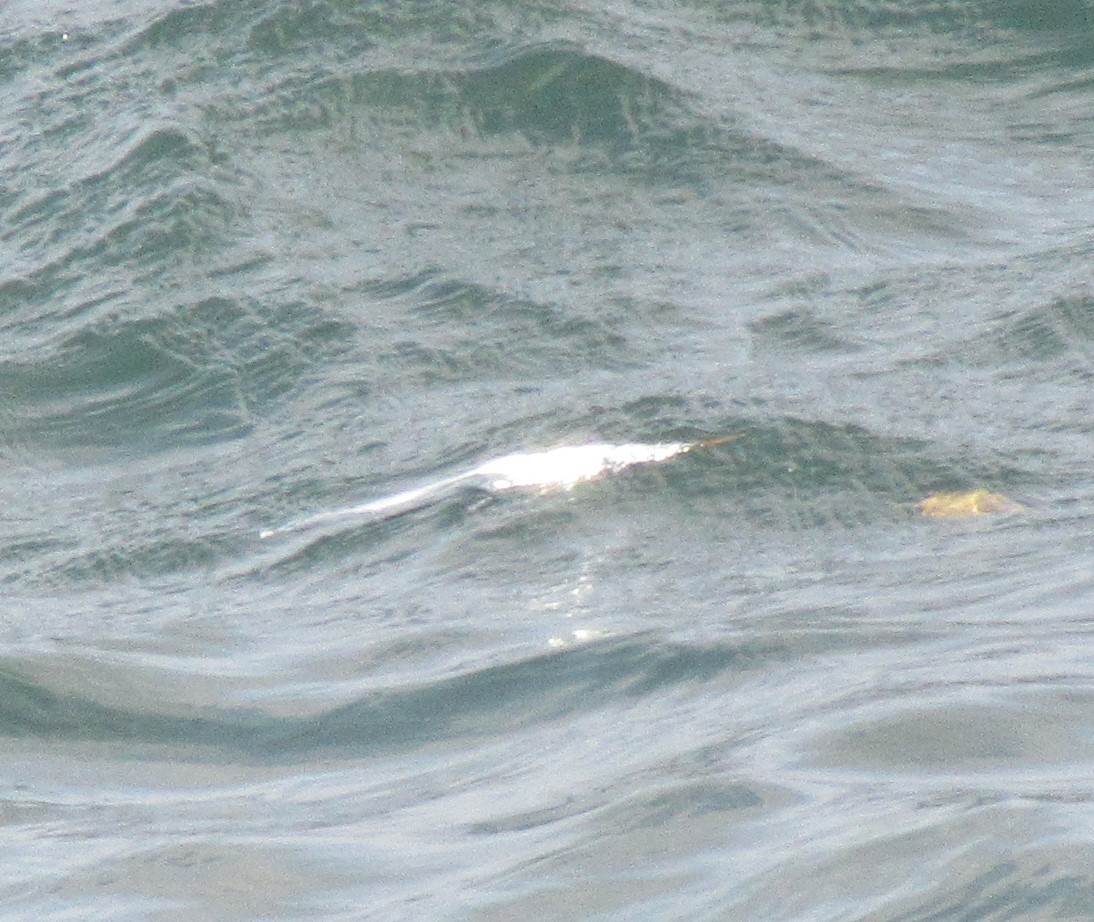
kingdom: Animalia
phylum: Chordata
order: Beloniformes
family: Scomberesocidae
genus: Scomberesox
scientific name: Scomberesox saurus
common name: Skipper
